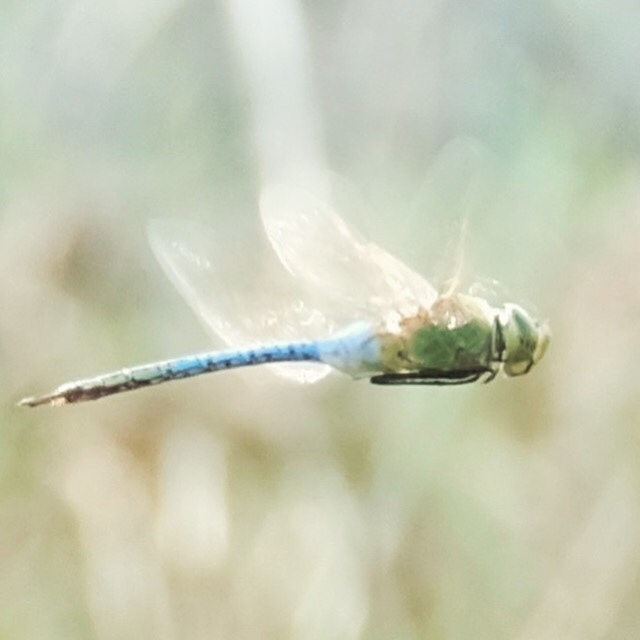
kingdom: Animalia
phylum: Arthropoda
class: Insecta
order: Odonata
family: Aeshnidae
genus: Anax
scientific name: Anax junius
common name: Common green darner
